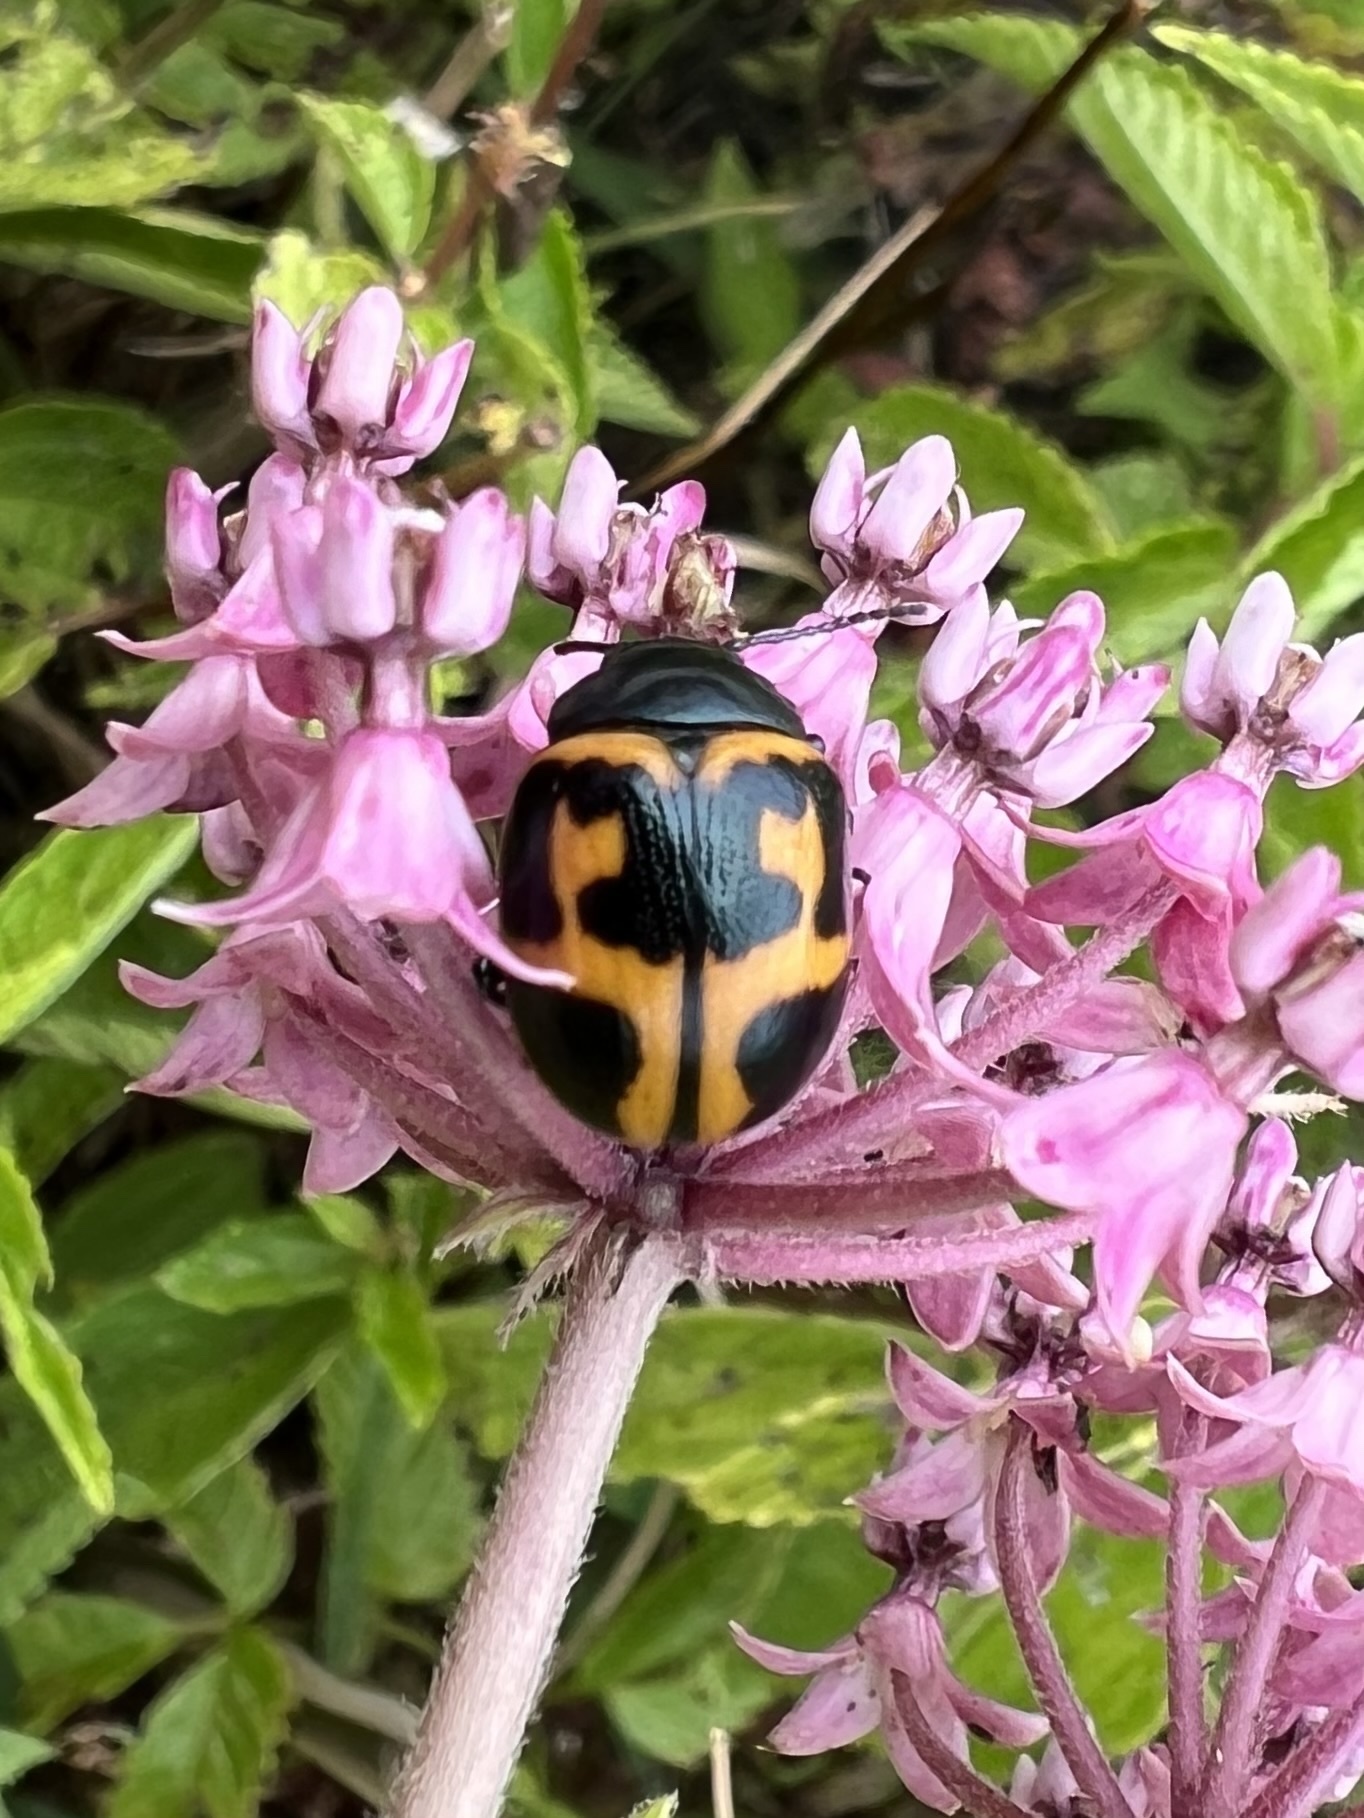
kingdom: Animalia
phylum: Arthropoda
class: Insecta
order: Coleoptera
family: Chrysomelidae
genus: Labidomera
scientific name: Labidomera clivicollis
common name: Swamp milkweed leaf beetle
